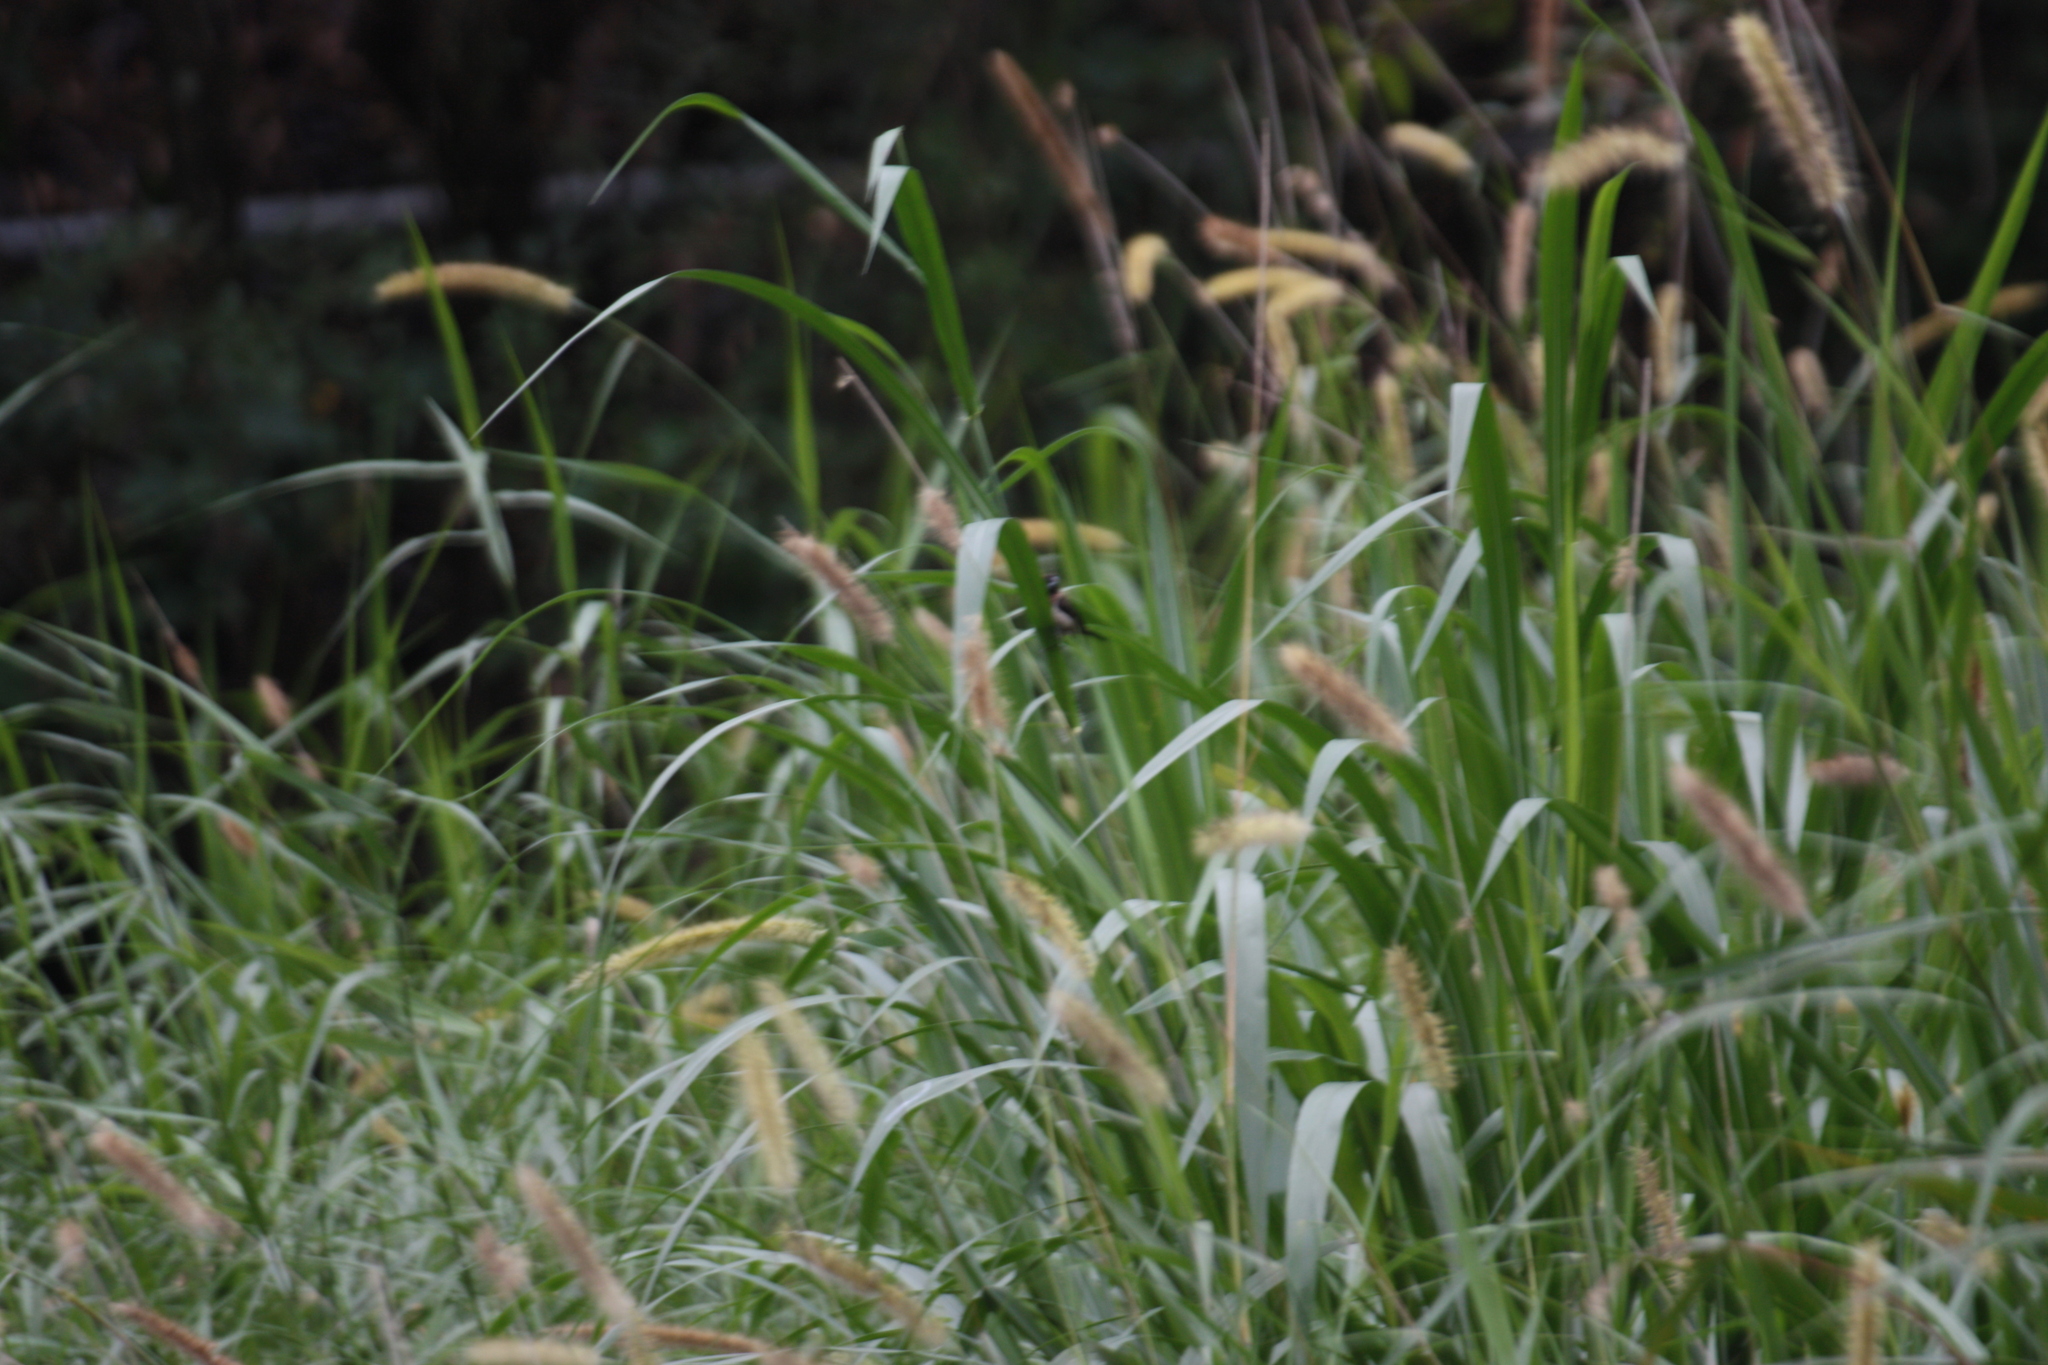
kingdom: Animalia
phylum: Chordata
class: Aves
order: Passeriformes
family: Estrildidae
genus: Lonchura
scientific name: Lonchura striata
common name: White-rumped munia
